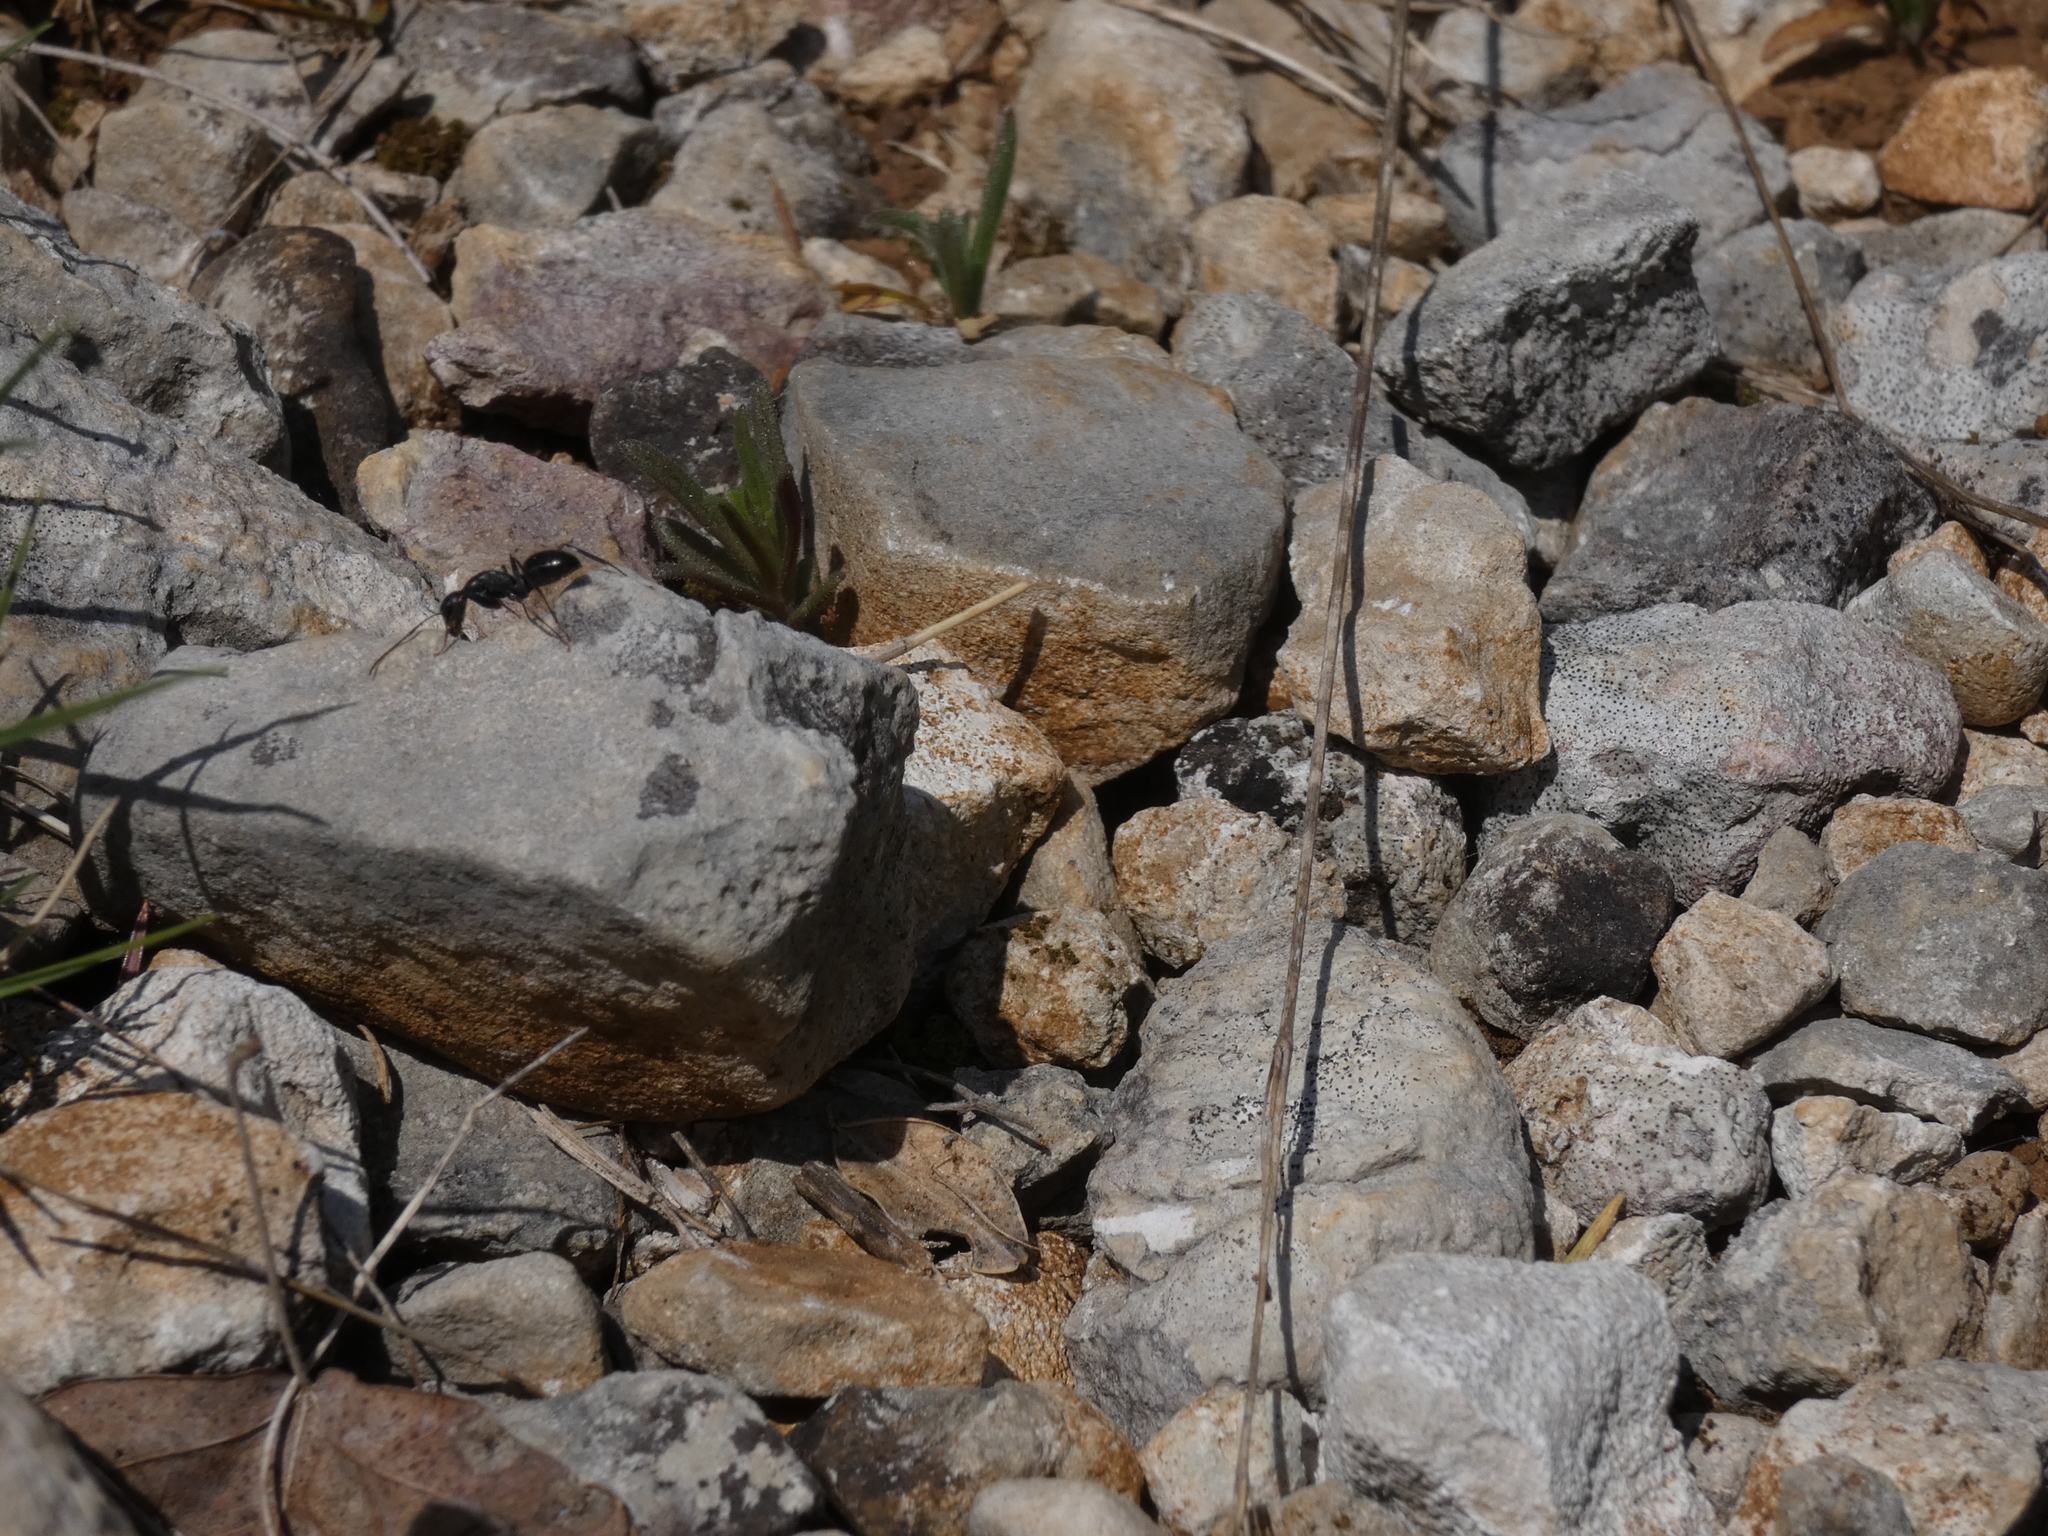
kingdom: Animalia
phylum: Arthropoda
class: Insecta
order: Hymenoptera
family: Formicidae
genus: Camponotus
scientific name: Camponotus aethiops
